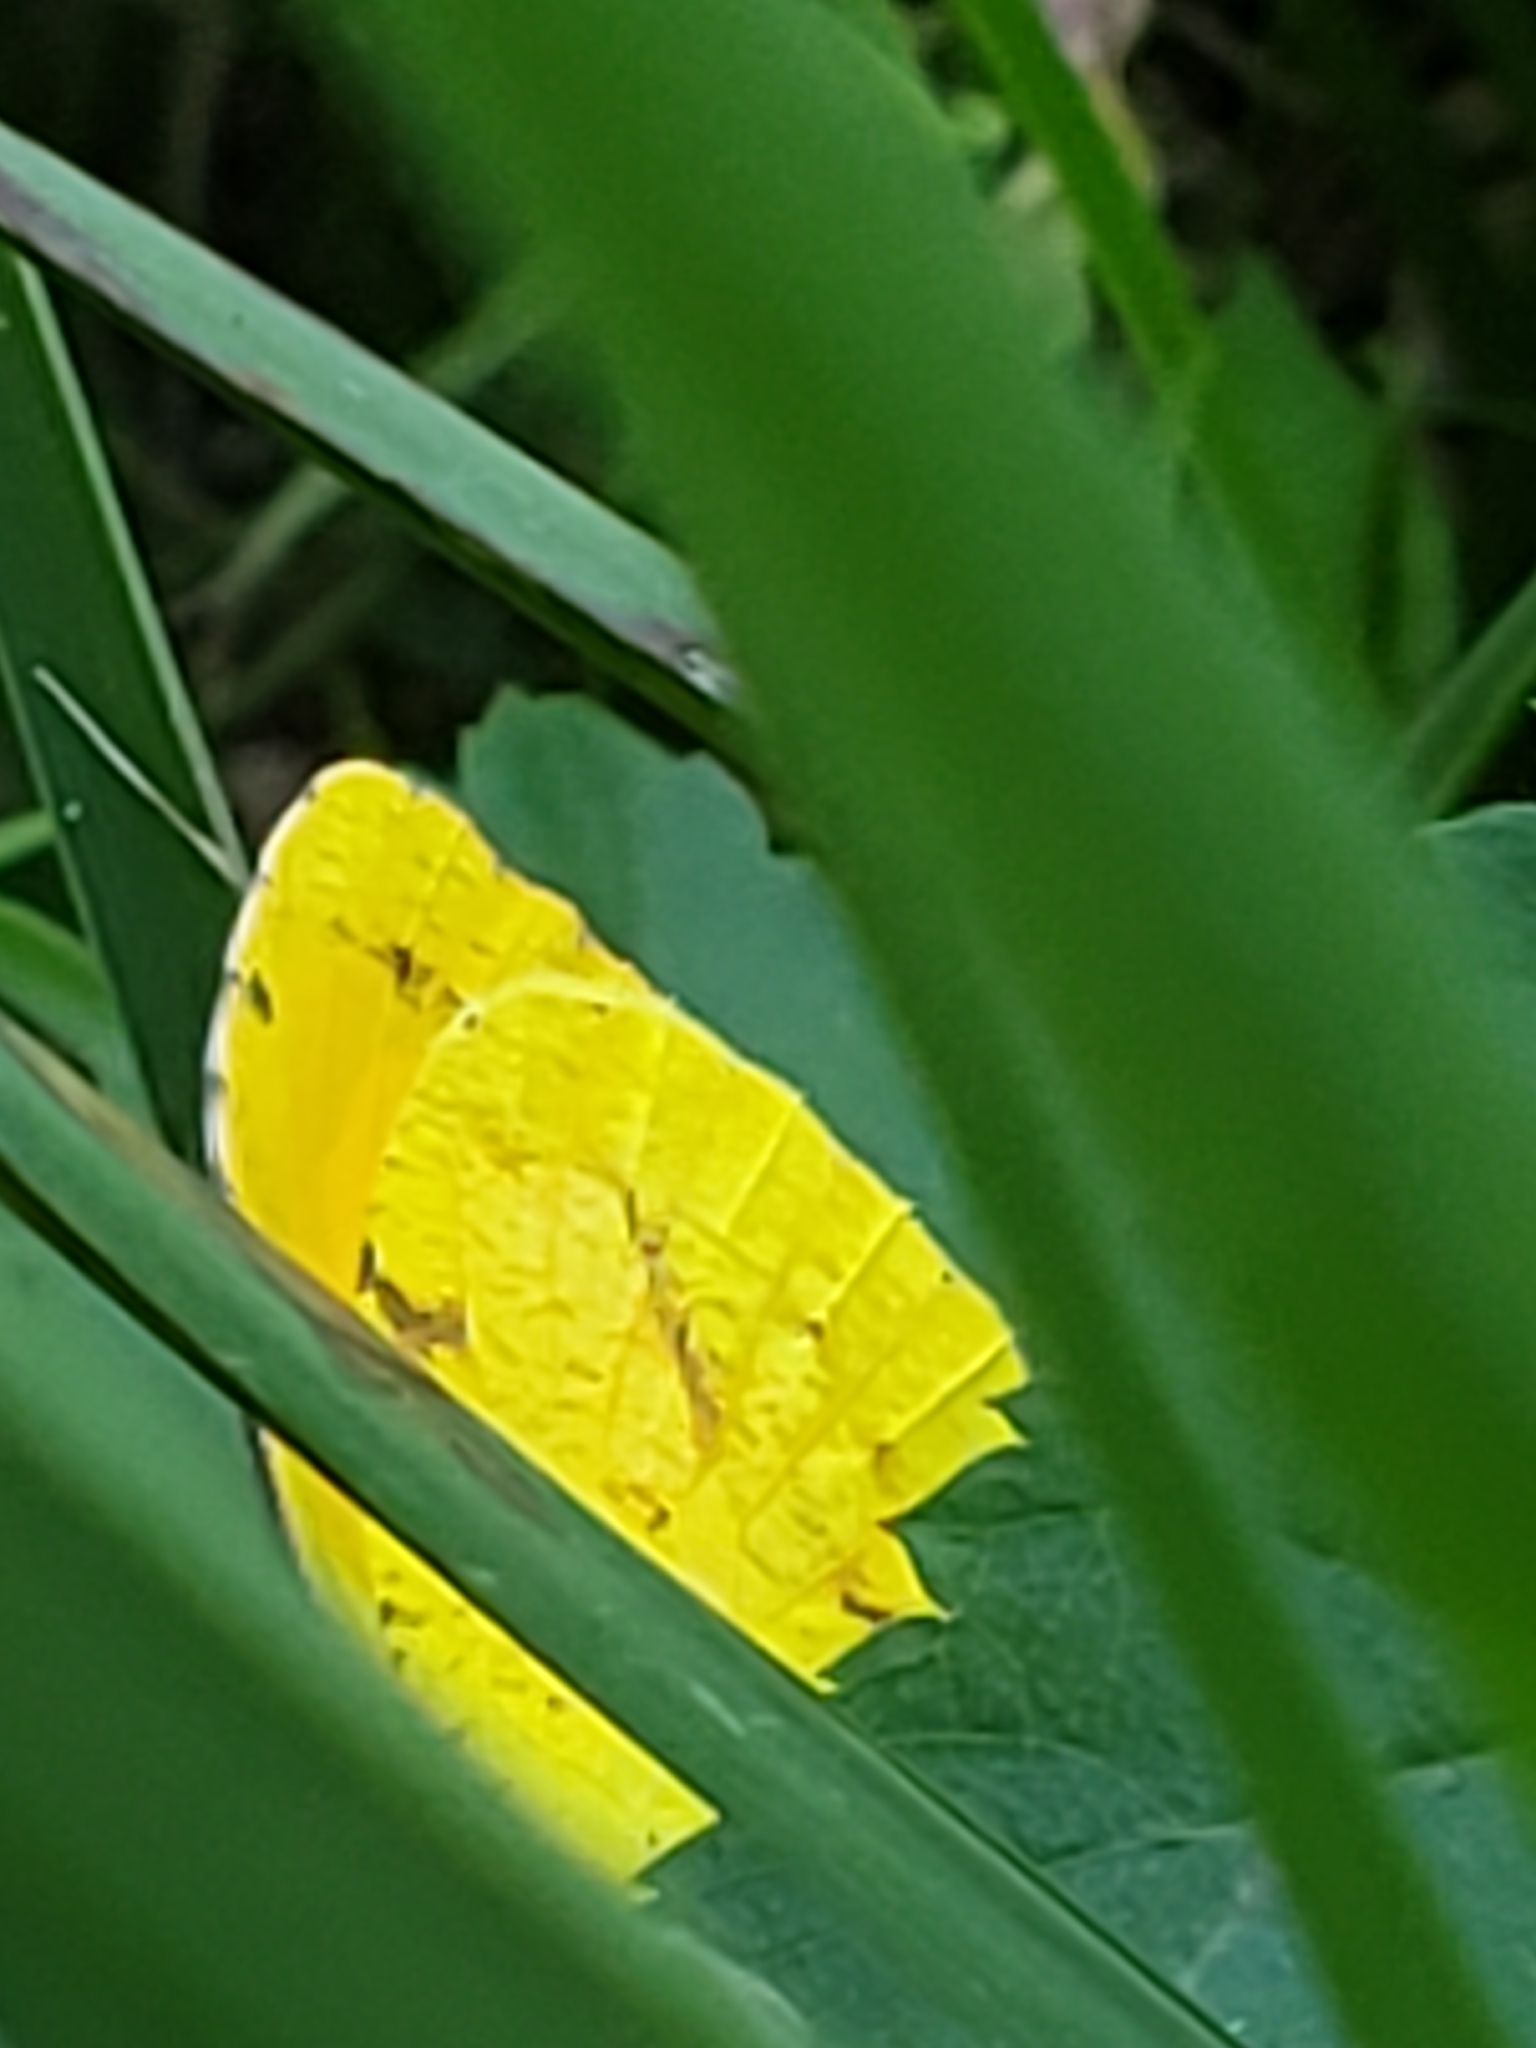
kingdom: Animalia
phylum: Arthropoda
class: Insecta
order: Lepidoptera
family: Pieridae
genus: Abaeis
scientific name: Abaeis nicippe
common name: Sleepy orange
